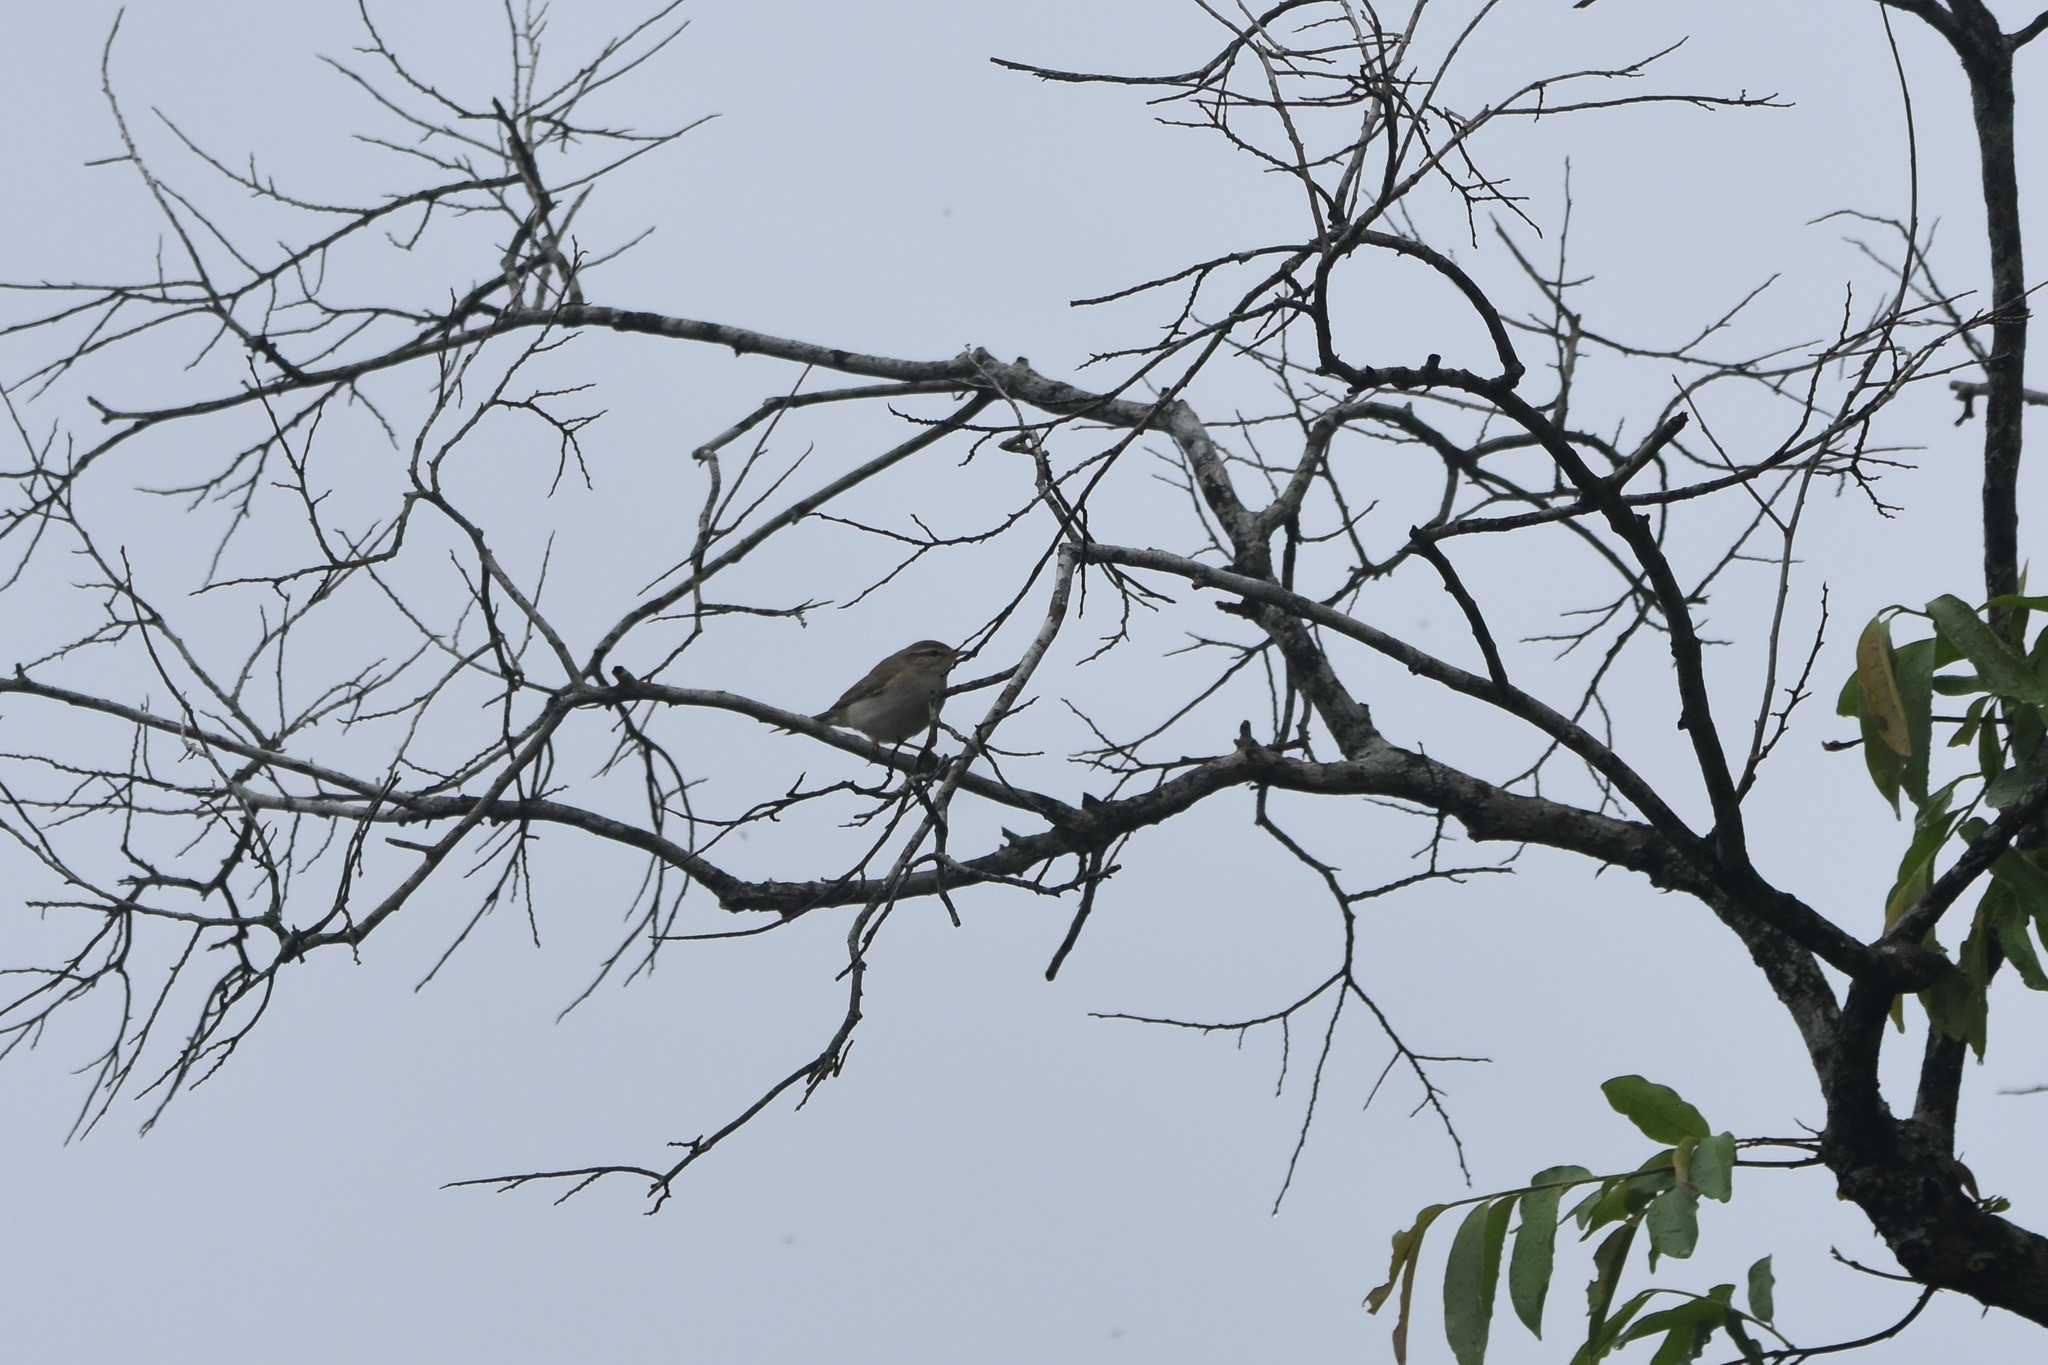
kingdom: Animalia
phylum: Chordata
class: Aves
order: Passeriformes
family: Phylloscopidae
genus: Phylloscopus
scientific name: Phylloscopus trochilus
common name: Willow warbler
